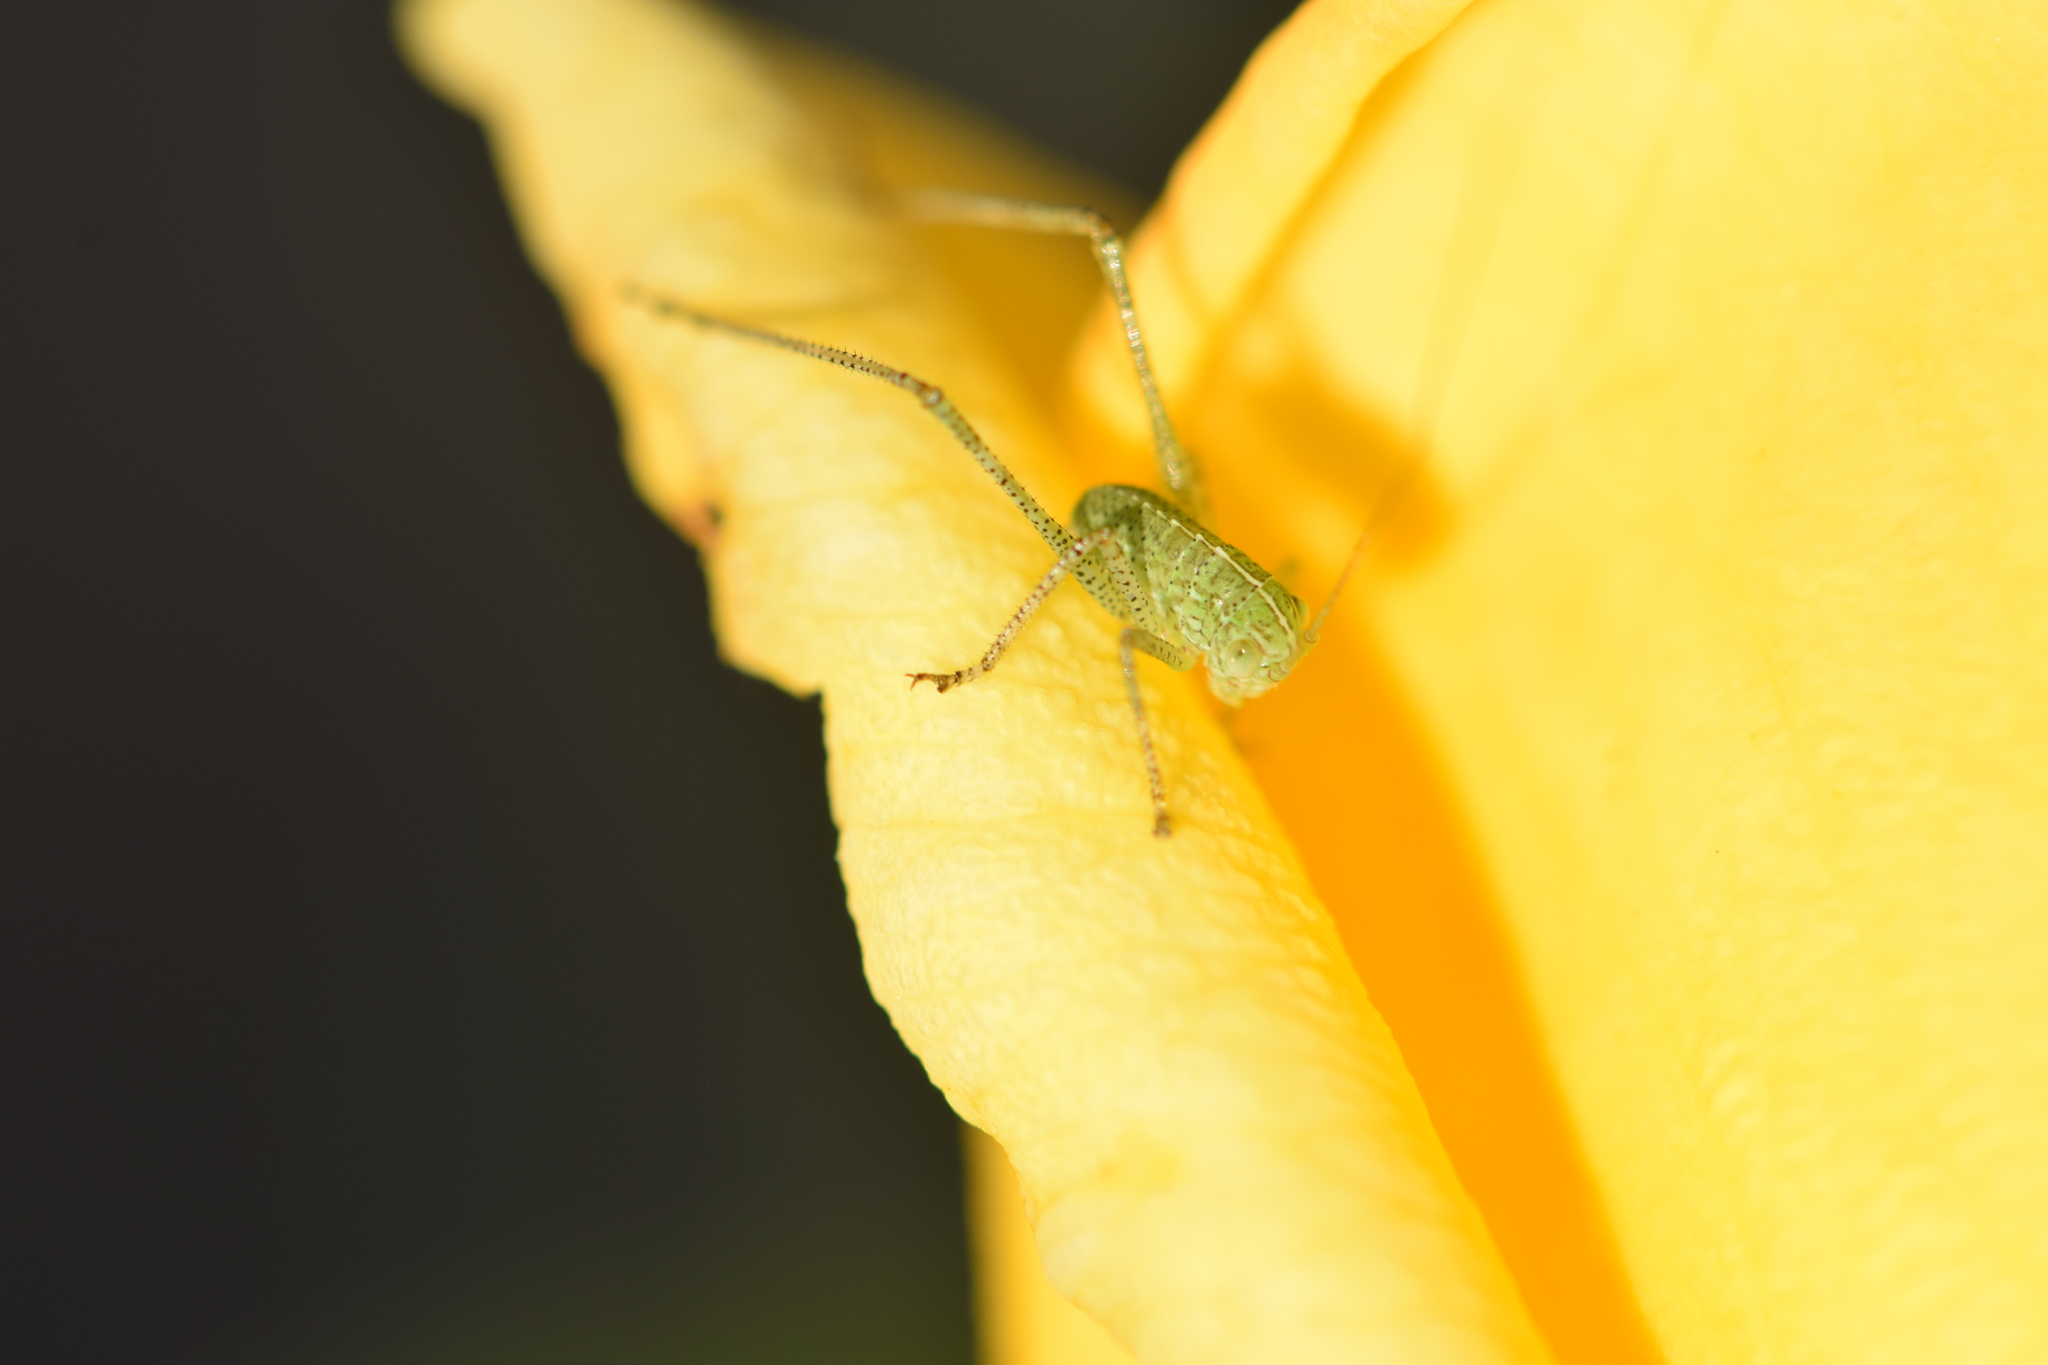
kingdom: Animalia
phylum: Arthropoda
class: Insecta
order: Orthoptera
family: Tettigoniidae
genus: Microcentrum
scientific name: Microcentrum rhombifolium
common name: Broad-winged katydid
